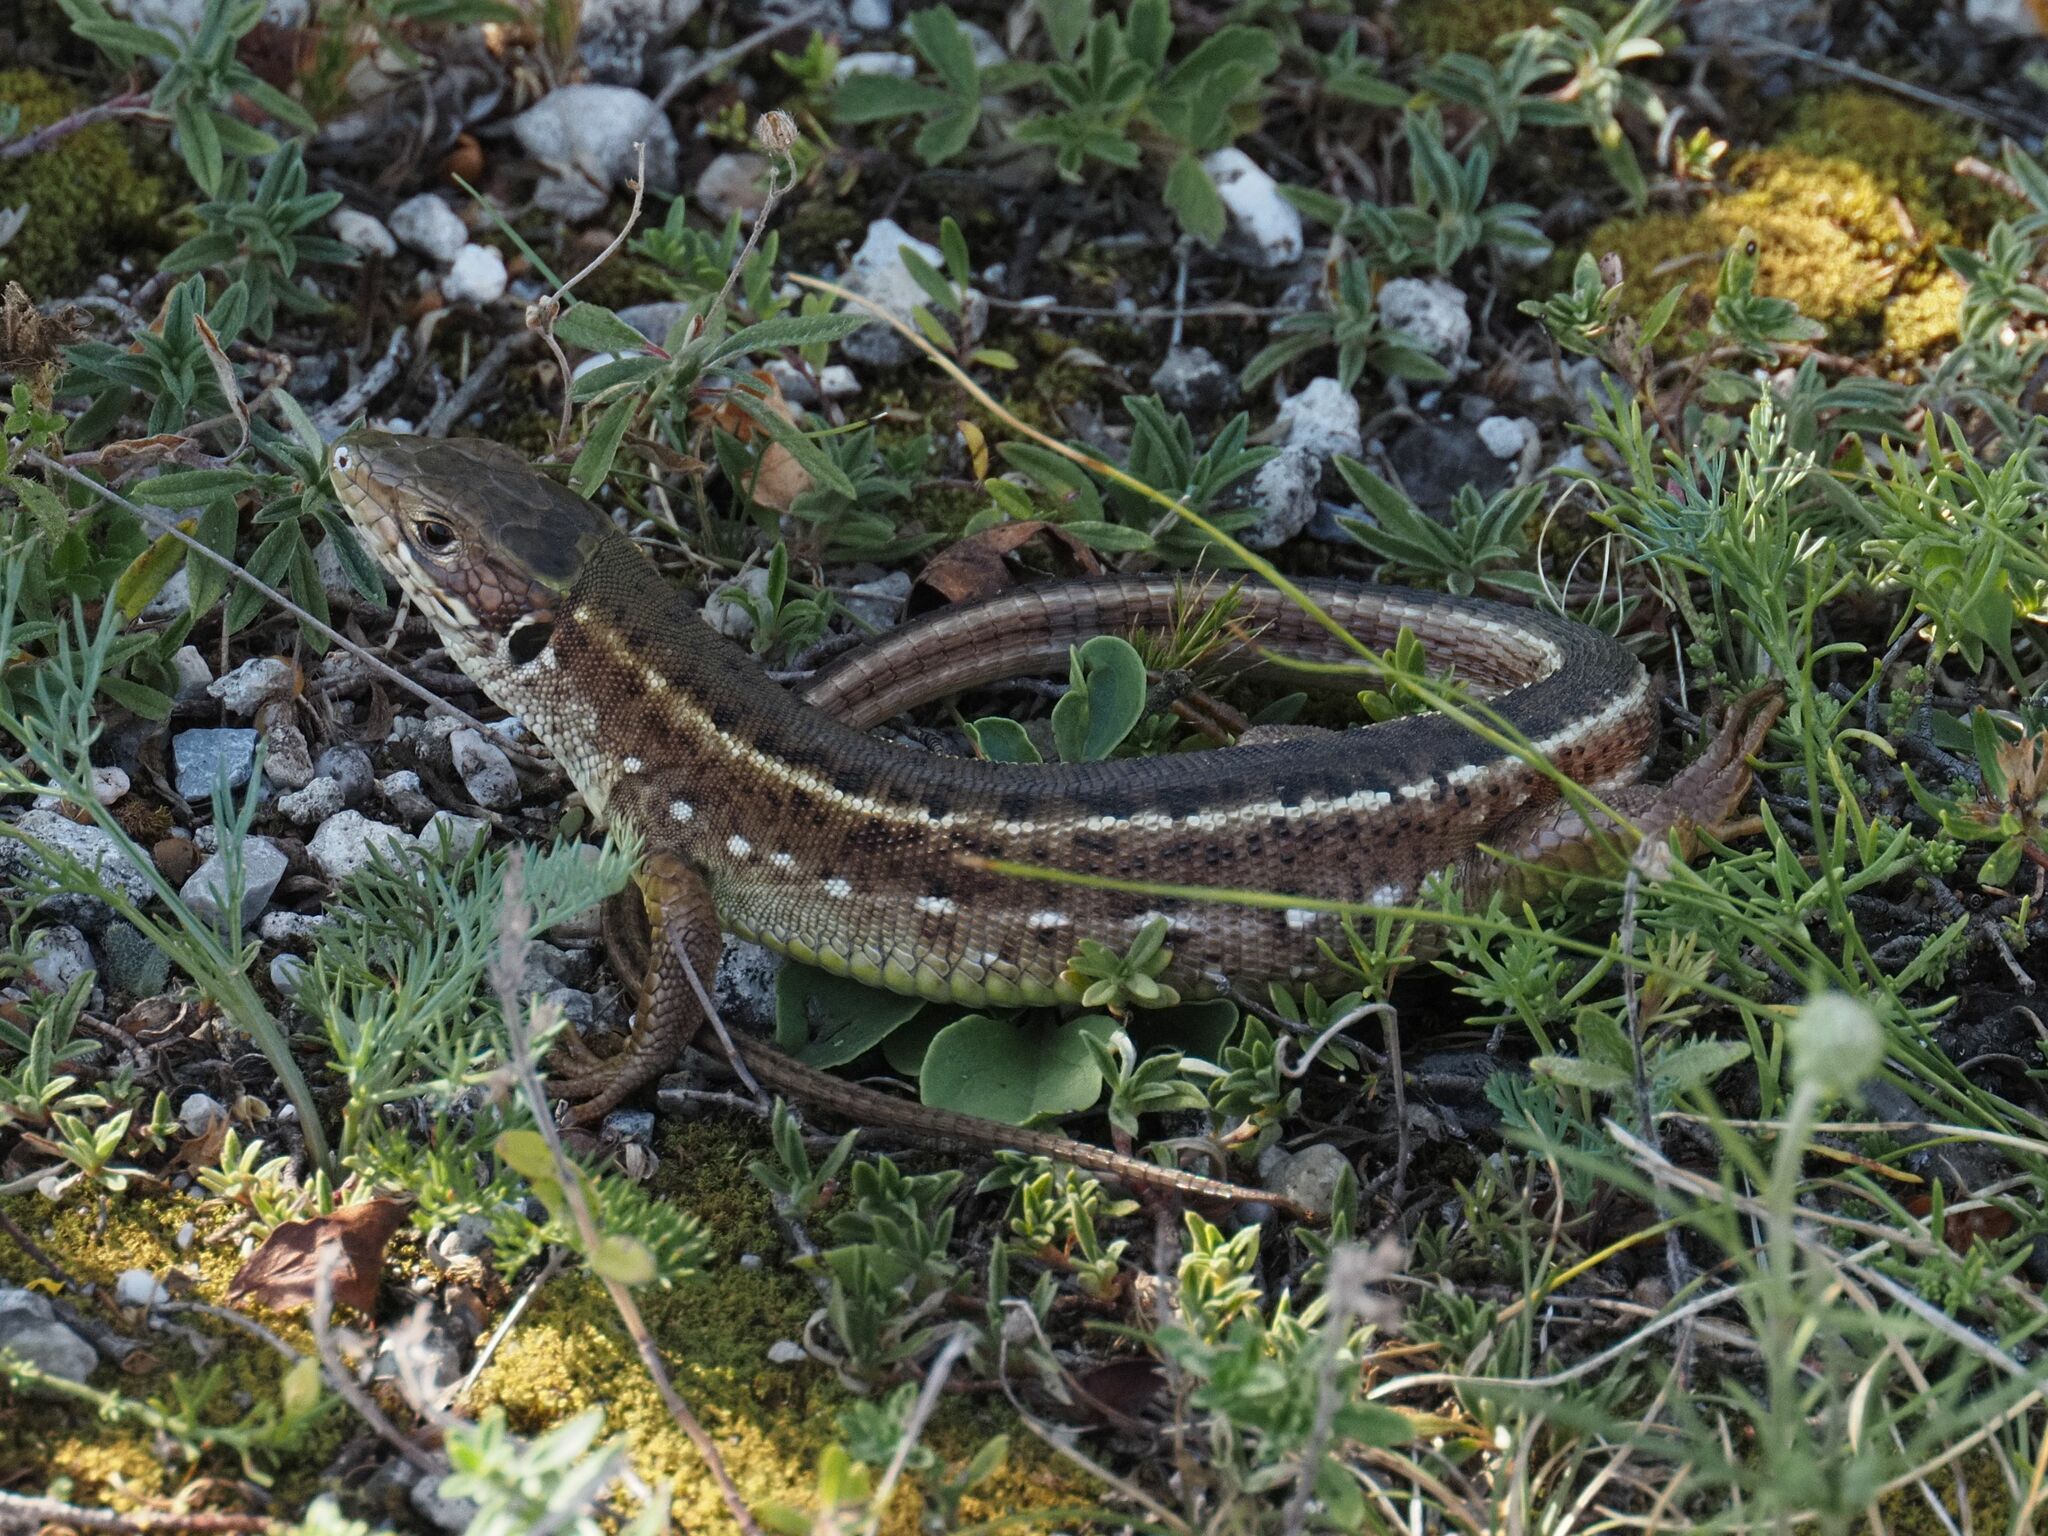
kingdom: Animalia
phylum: Chordata
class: Squamata
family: Lacertidae
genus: Lacerta
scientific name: Lacerta viridis
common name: European green lizard
